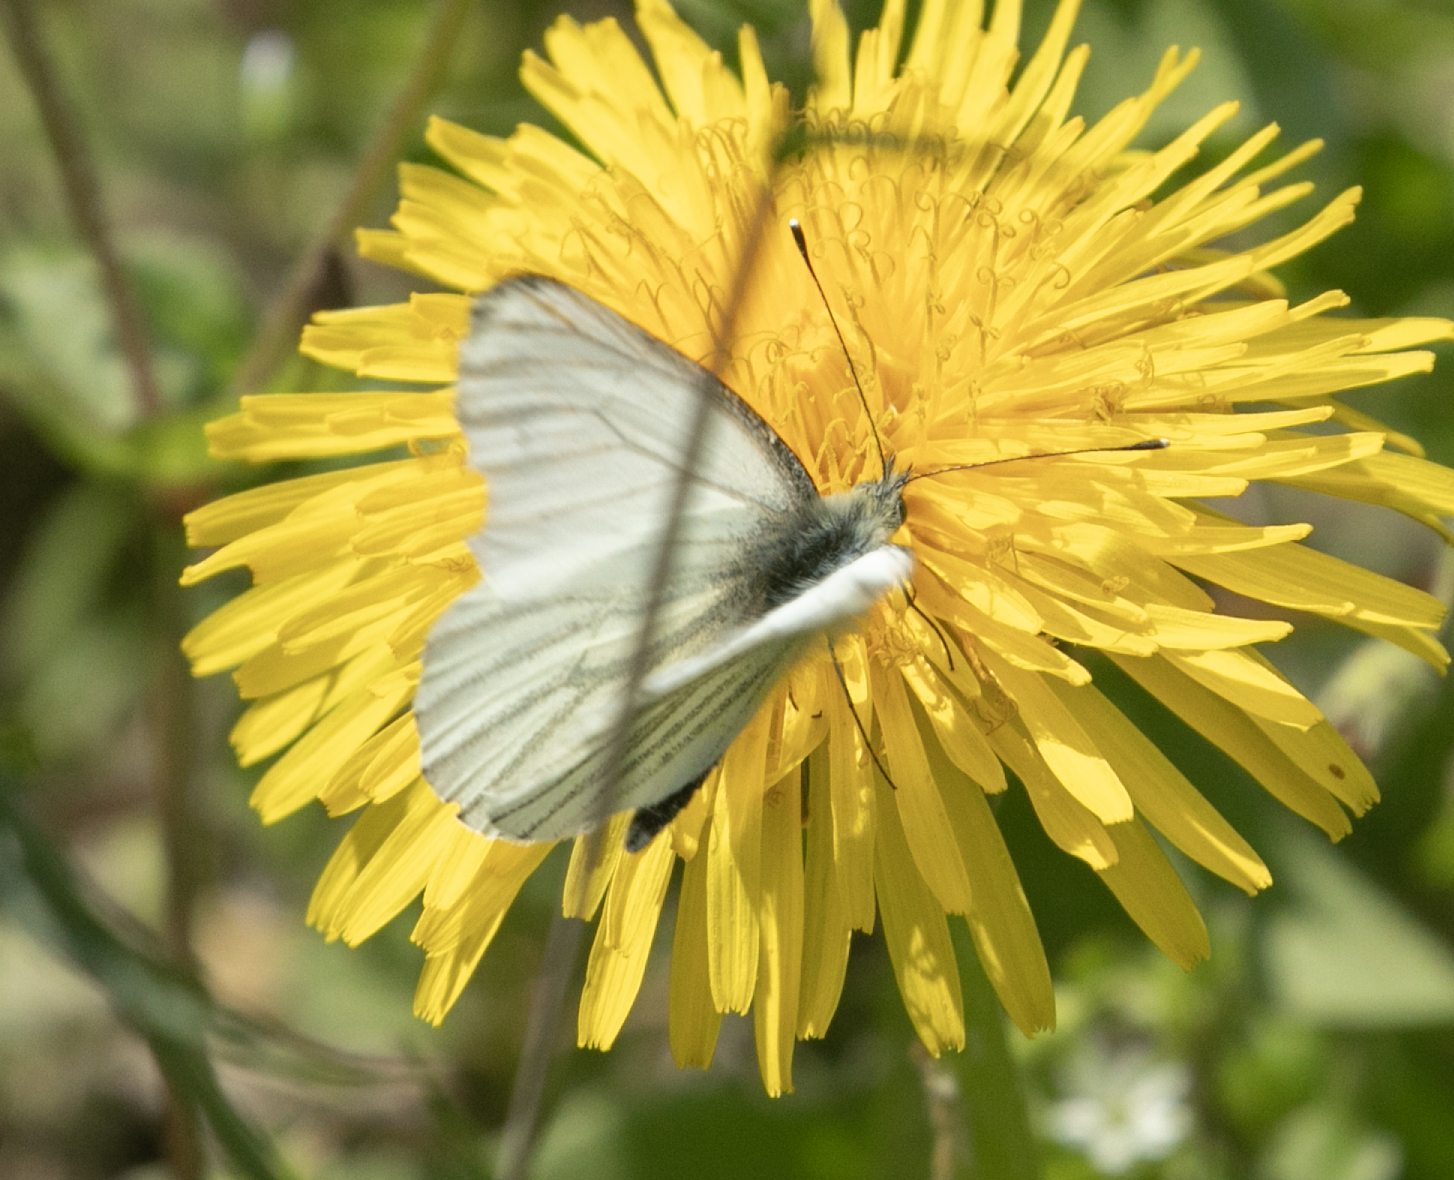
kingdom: Animalia
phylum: Arthropoda
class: Insecta
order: Lepidoptera
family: Pieridae
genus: Pieris
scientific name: Pieris napi
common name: Green-veined white
